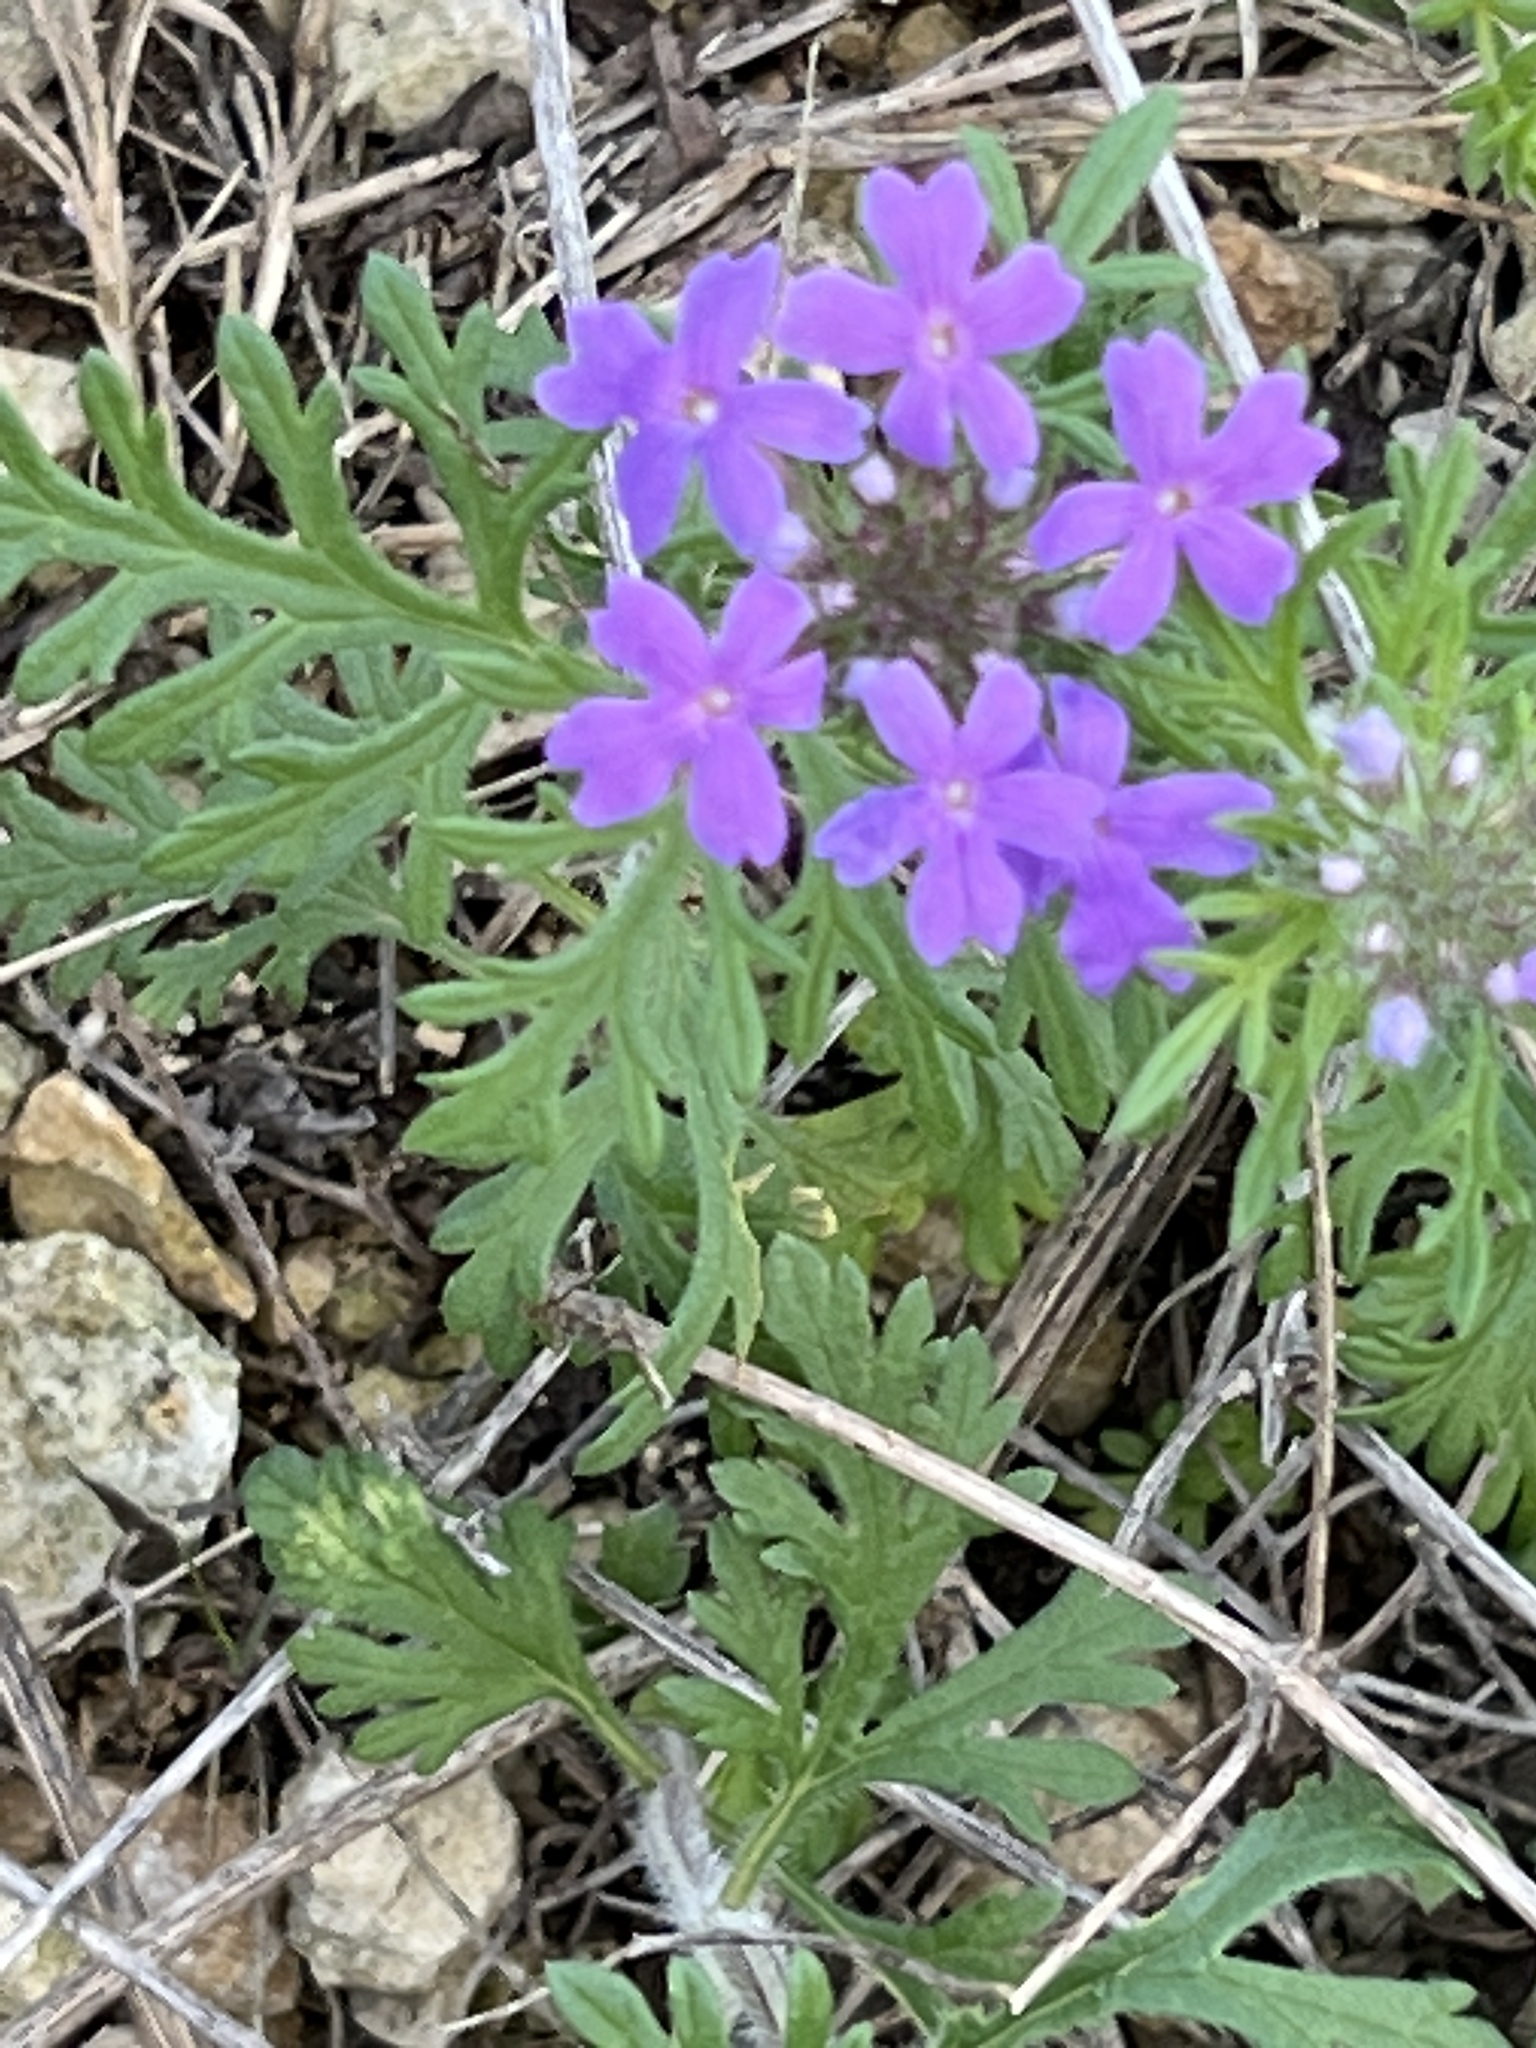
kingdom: Plantae
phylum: Tracheophyta
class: Magnoliopsida
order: Lamiales
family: Verbenaceae
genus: Verbena
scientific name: Verbena bipinnatifida
